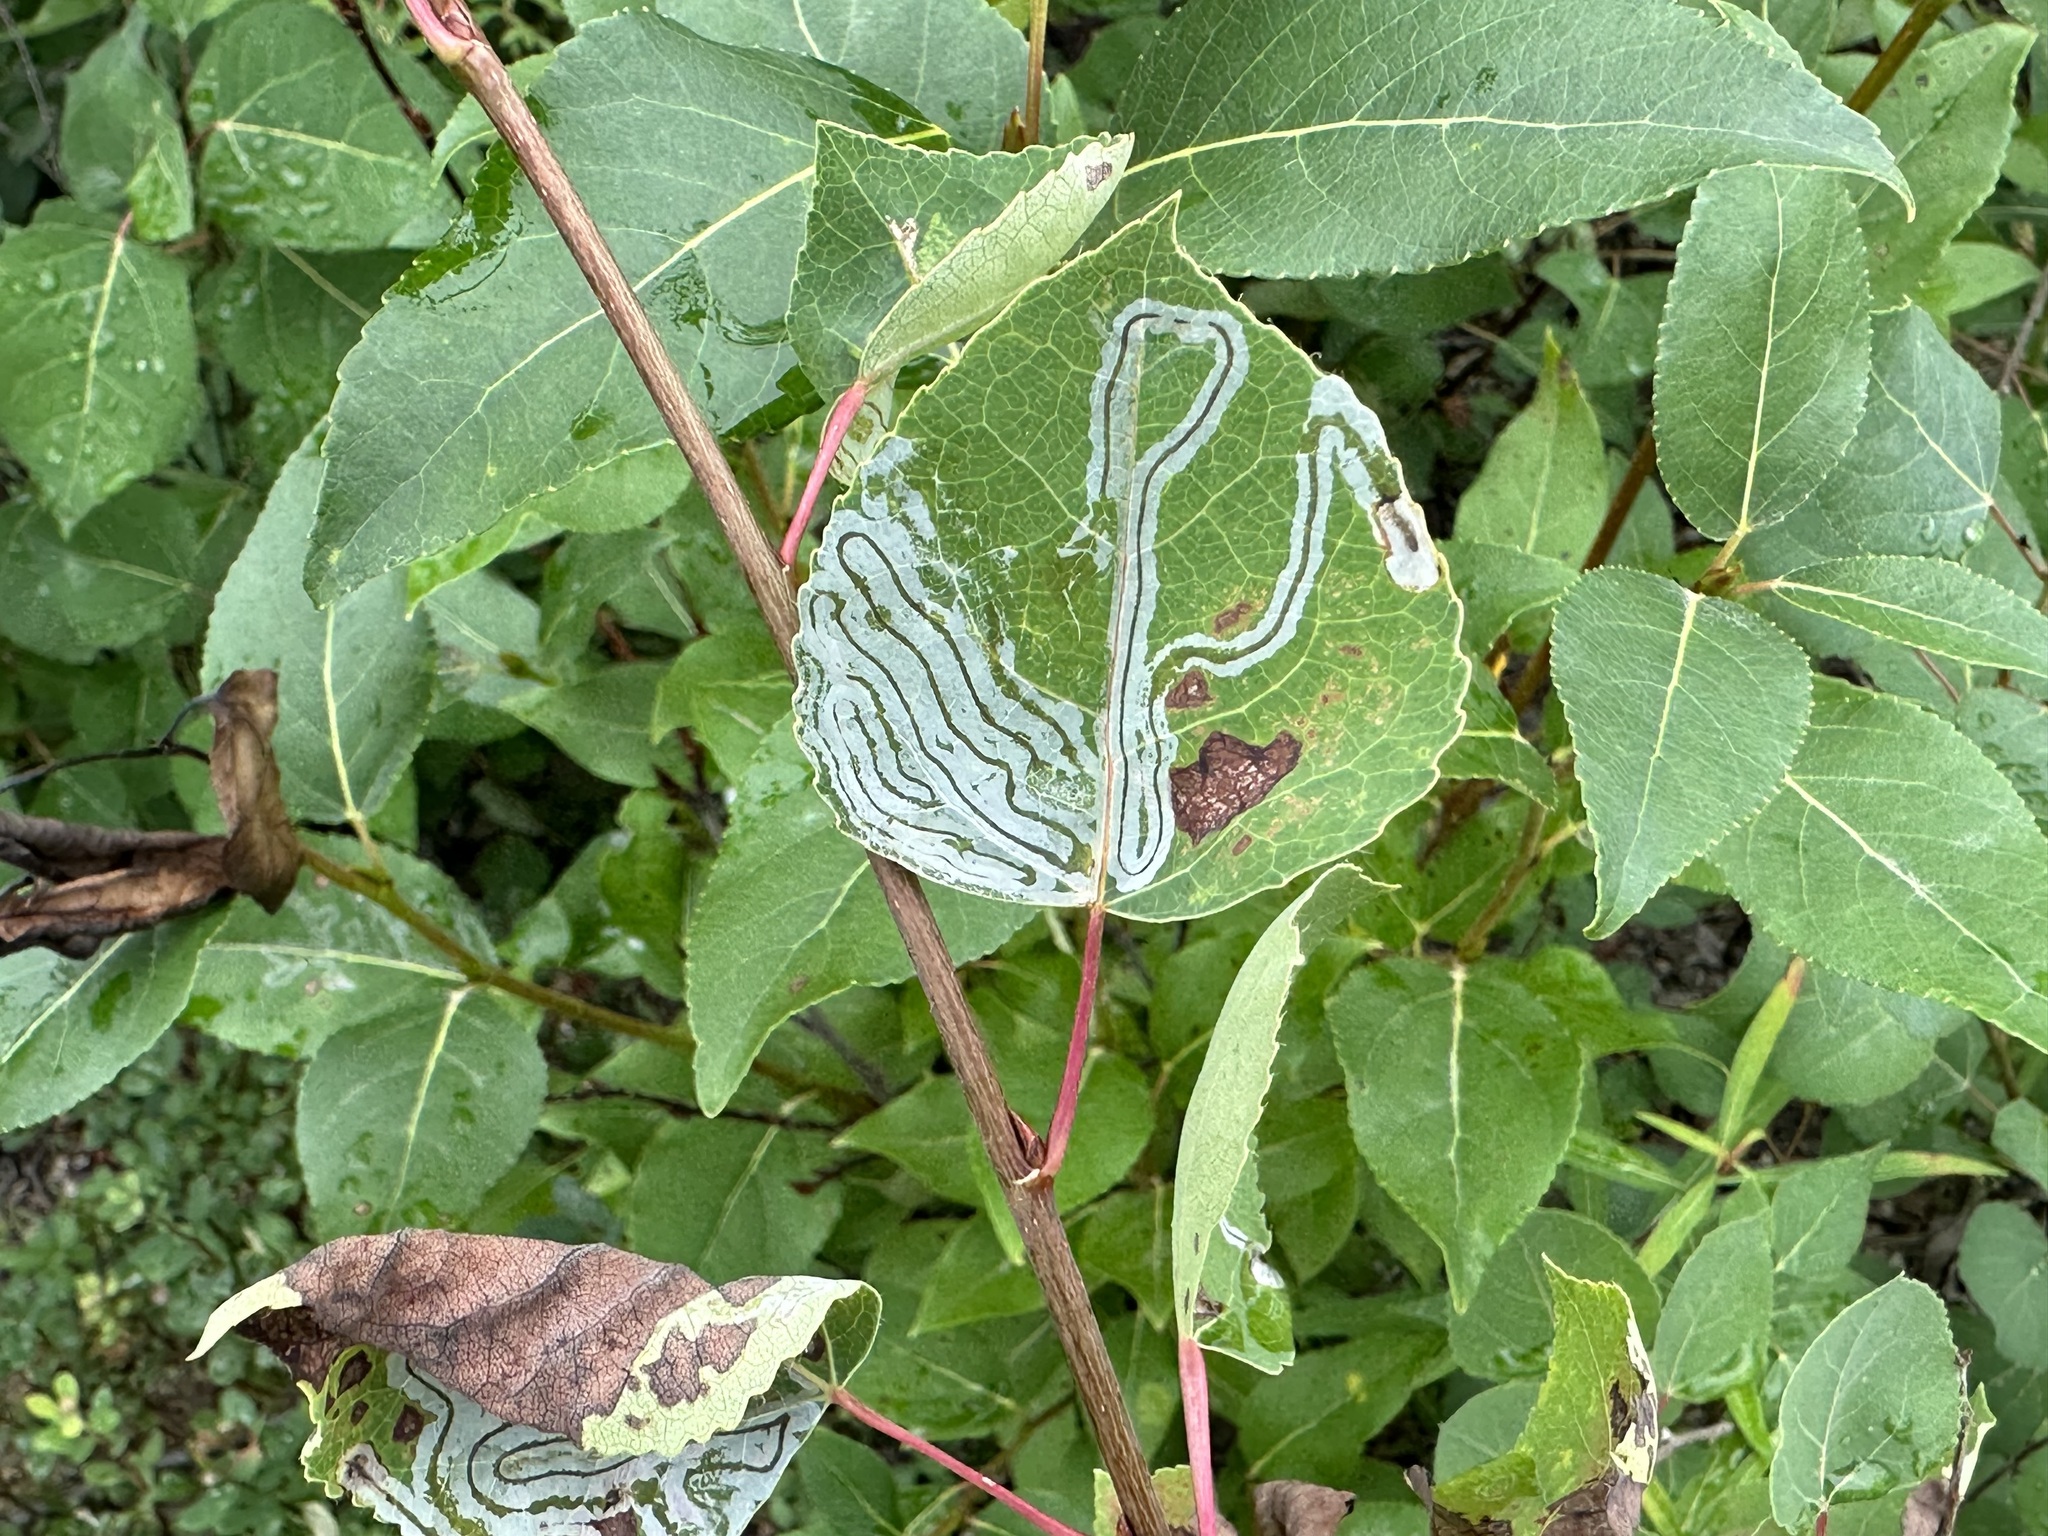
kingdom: Animalia
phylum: Arthropoda
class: Insecta
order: Lepidoptera
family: Gracillariidae
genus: Phyllocnistis
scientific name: Phyllocnistis populiella
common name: Aspen serpentine leafminer moth
